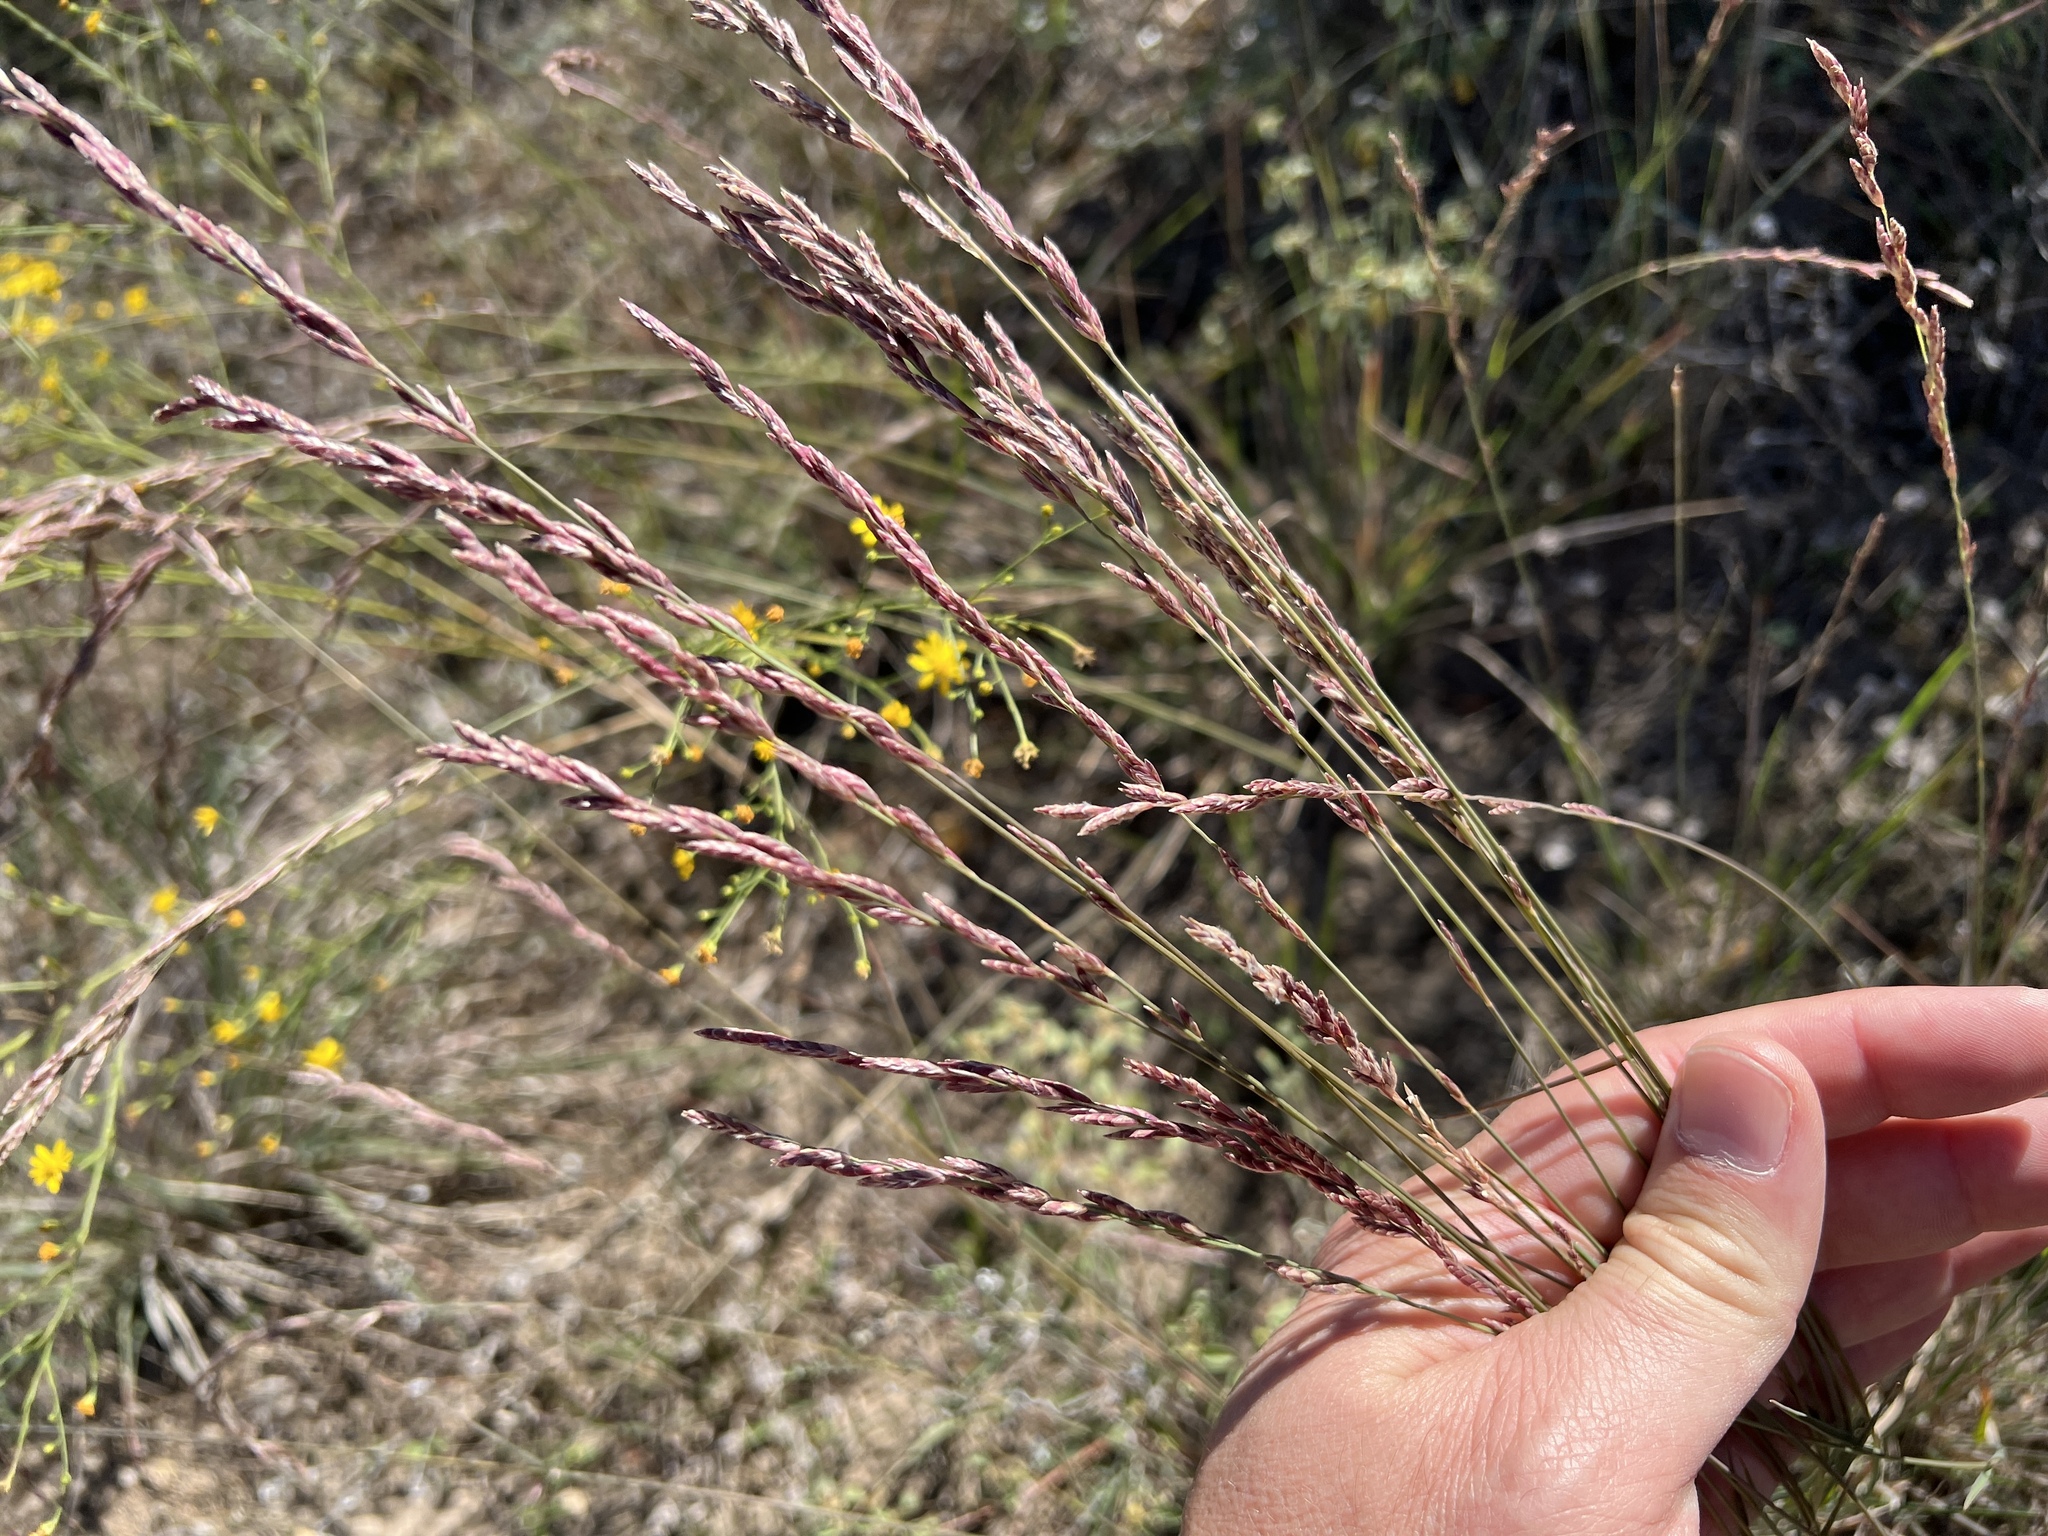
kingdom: Plantae
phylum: Tracheophyta
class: Liliopsida
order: Poales
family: Poaceae
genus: Tridentopsis
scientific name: Tridentopsis mutica
